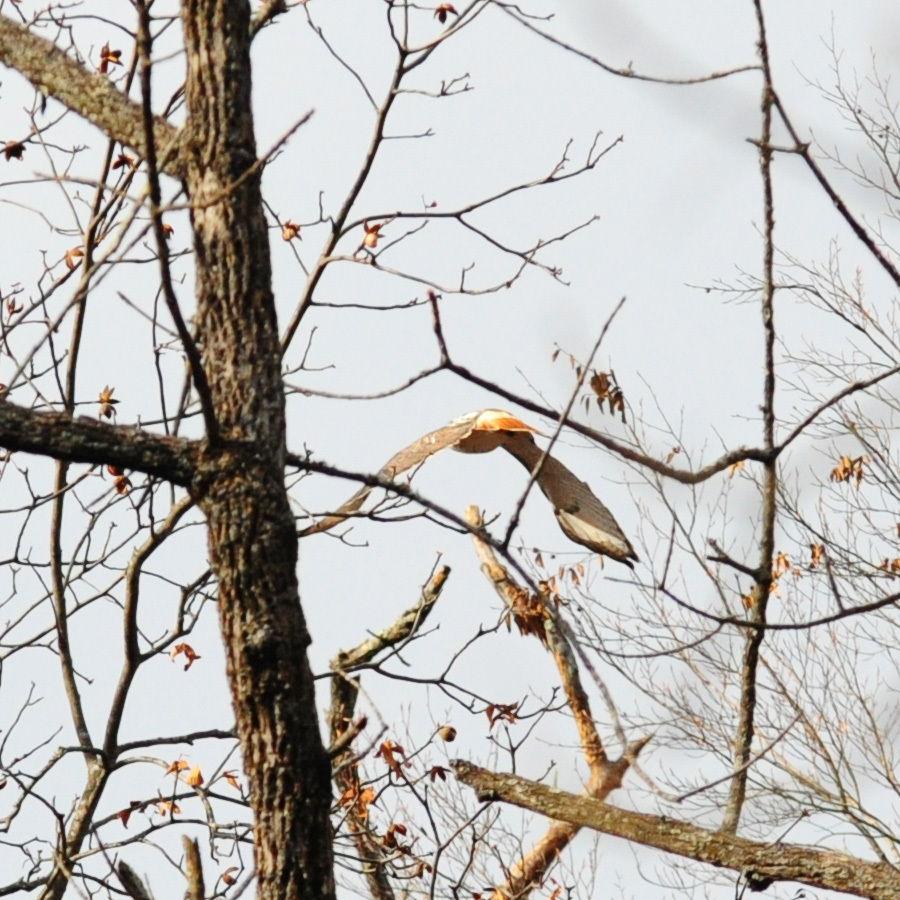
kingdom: Animalia
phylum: Chordata
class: Aves
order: Accipitriformes
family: Accipitridae
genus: Buteo
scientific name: Buteo jamaicensis
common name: Red-tailed hawk
